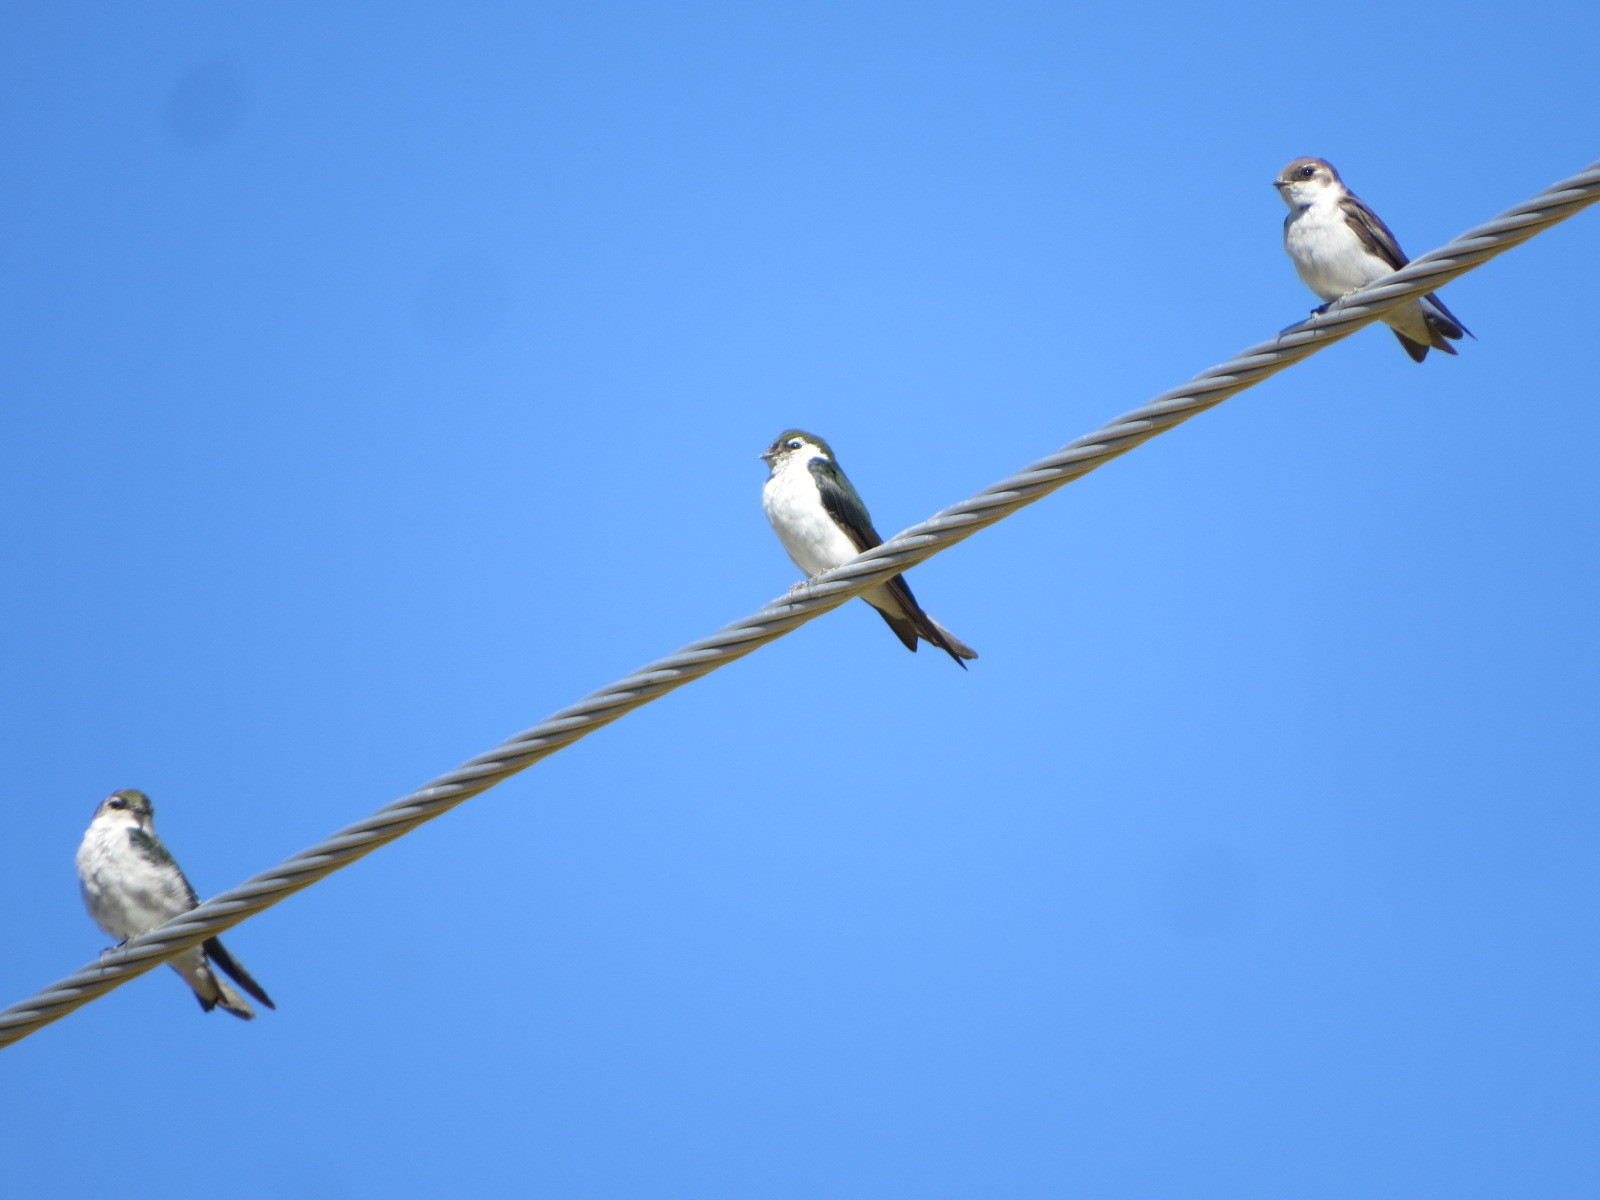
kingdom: Animalia
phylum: Chordata
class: Aves
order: Passeriformes
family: Hirundinidae
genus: Tachycineta
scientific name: Tachycineta thalassina
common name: Violet-green swallow
